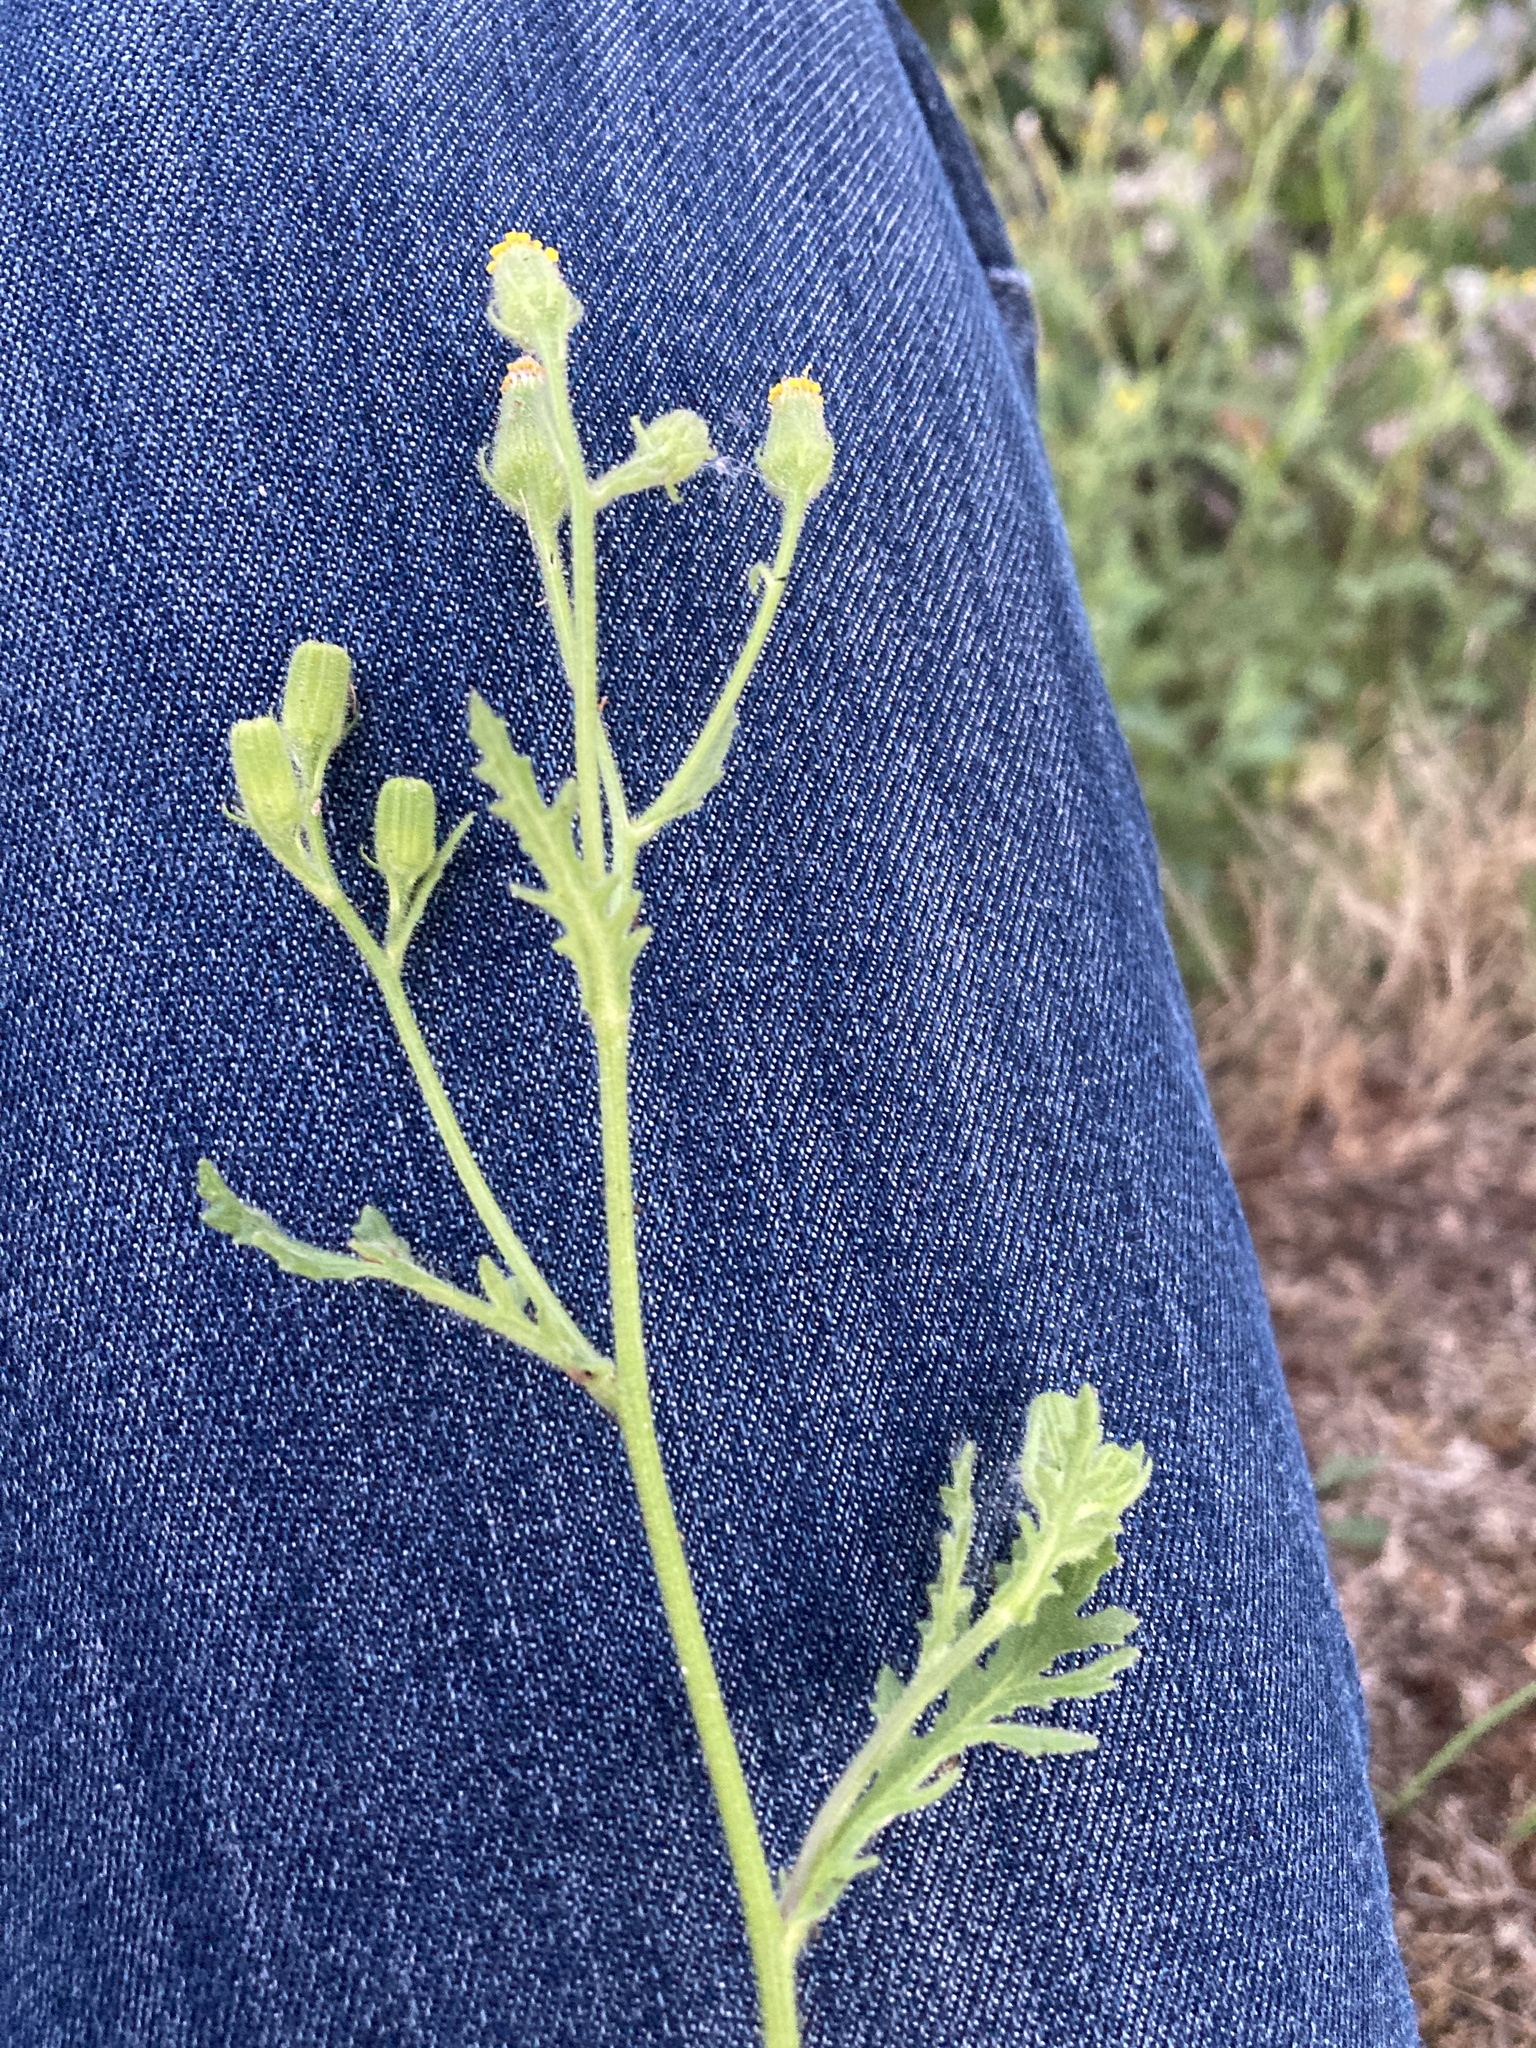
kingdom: Plantae
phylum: Tracheophyta
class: Magnoliopsida
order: Asterales
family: Asteraceae
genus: Senecio
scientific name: Senecio vulgaris
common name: Old-man-in-the-spring
